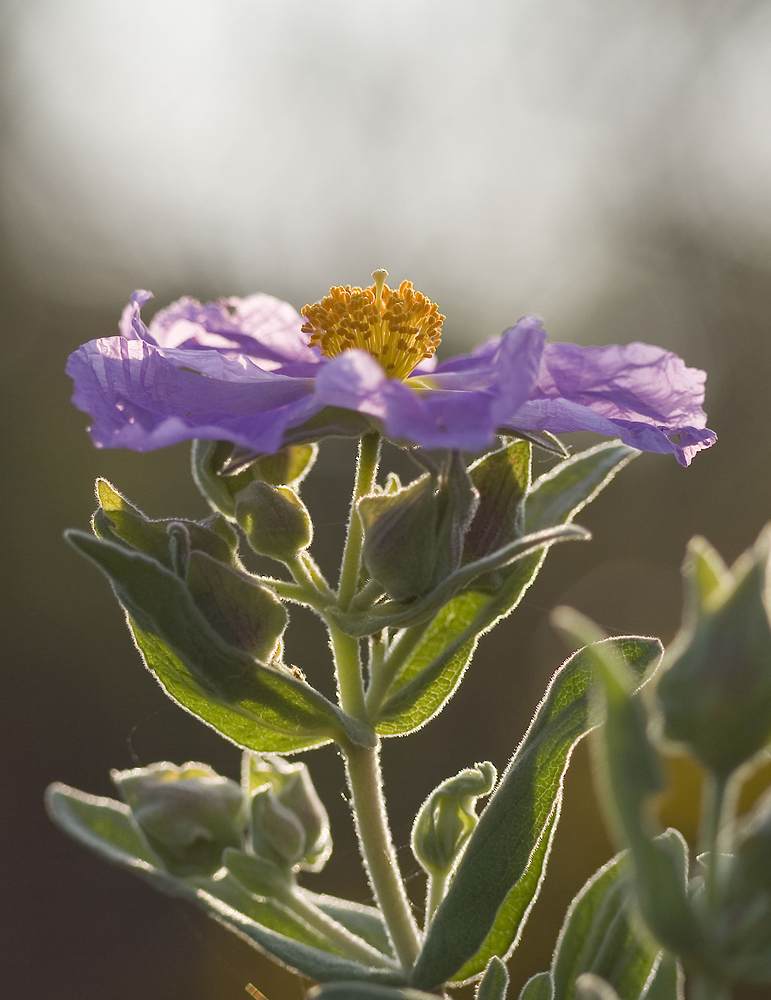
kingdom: Plantae
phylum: Tracheophyta
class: Magnoliopsida
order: Malvales
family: Cistaceae
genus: Cistus
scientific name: Cistus albidus
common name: White-leaf rock-rose
